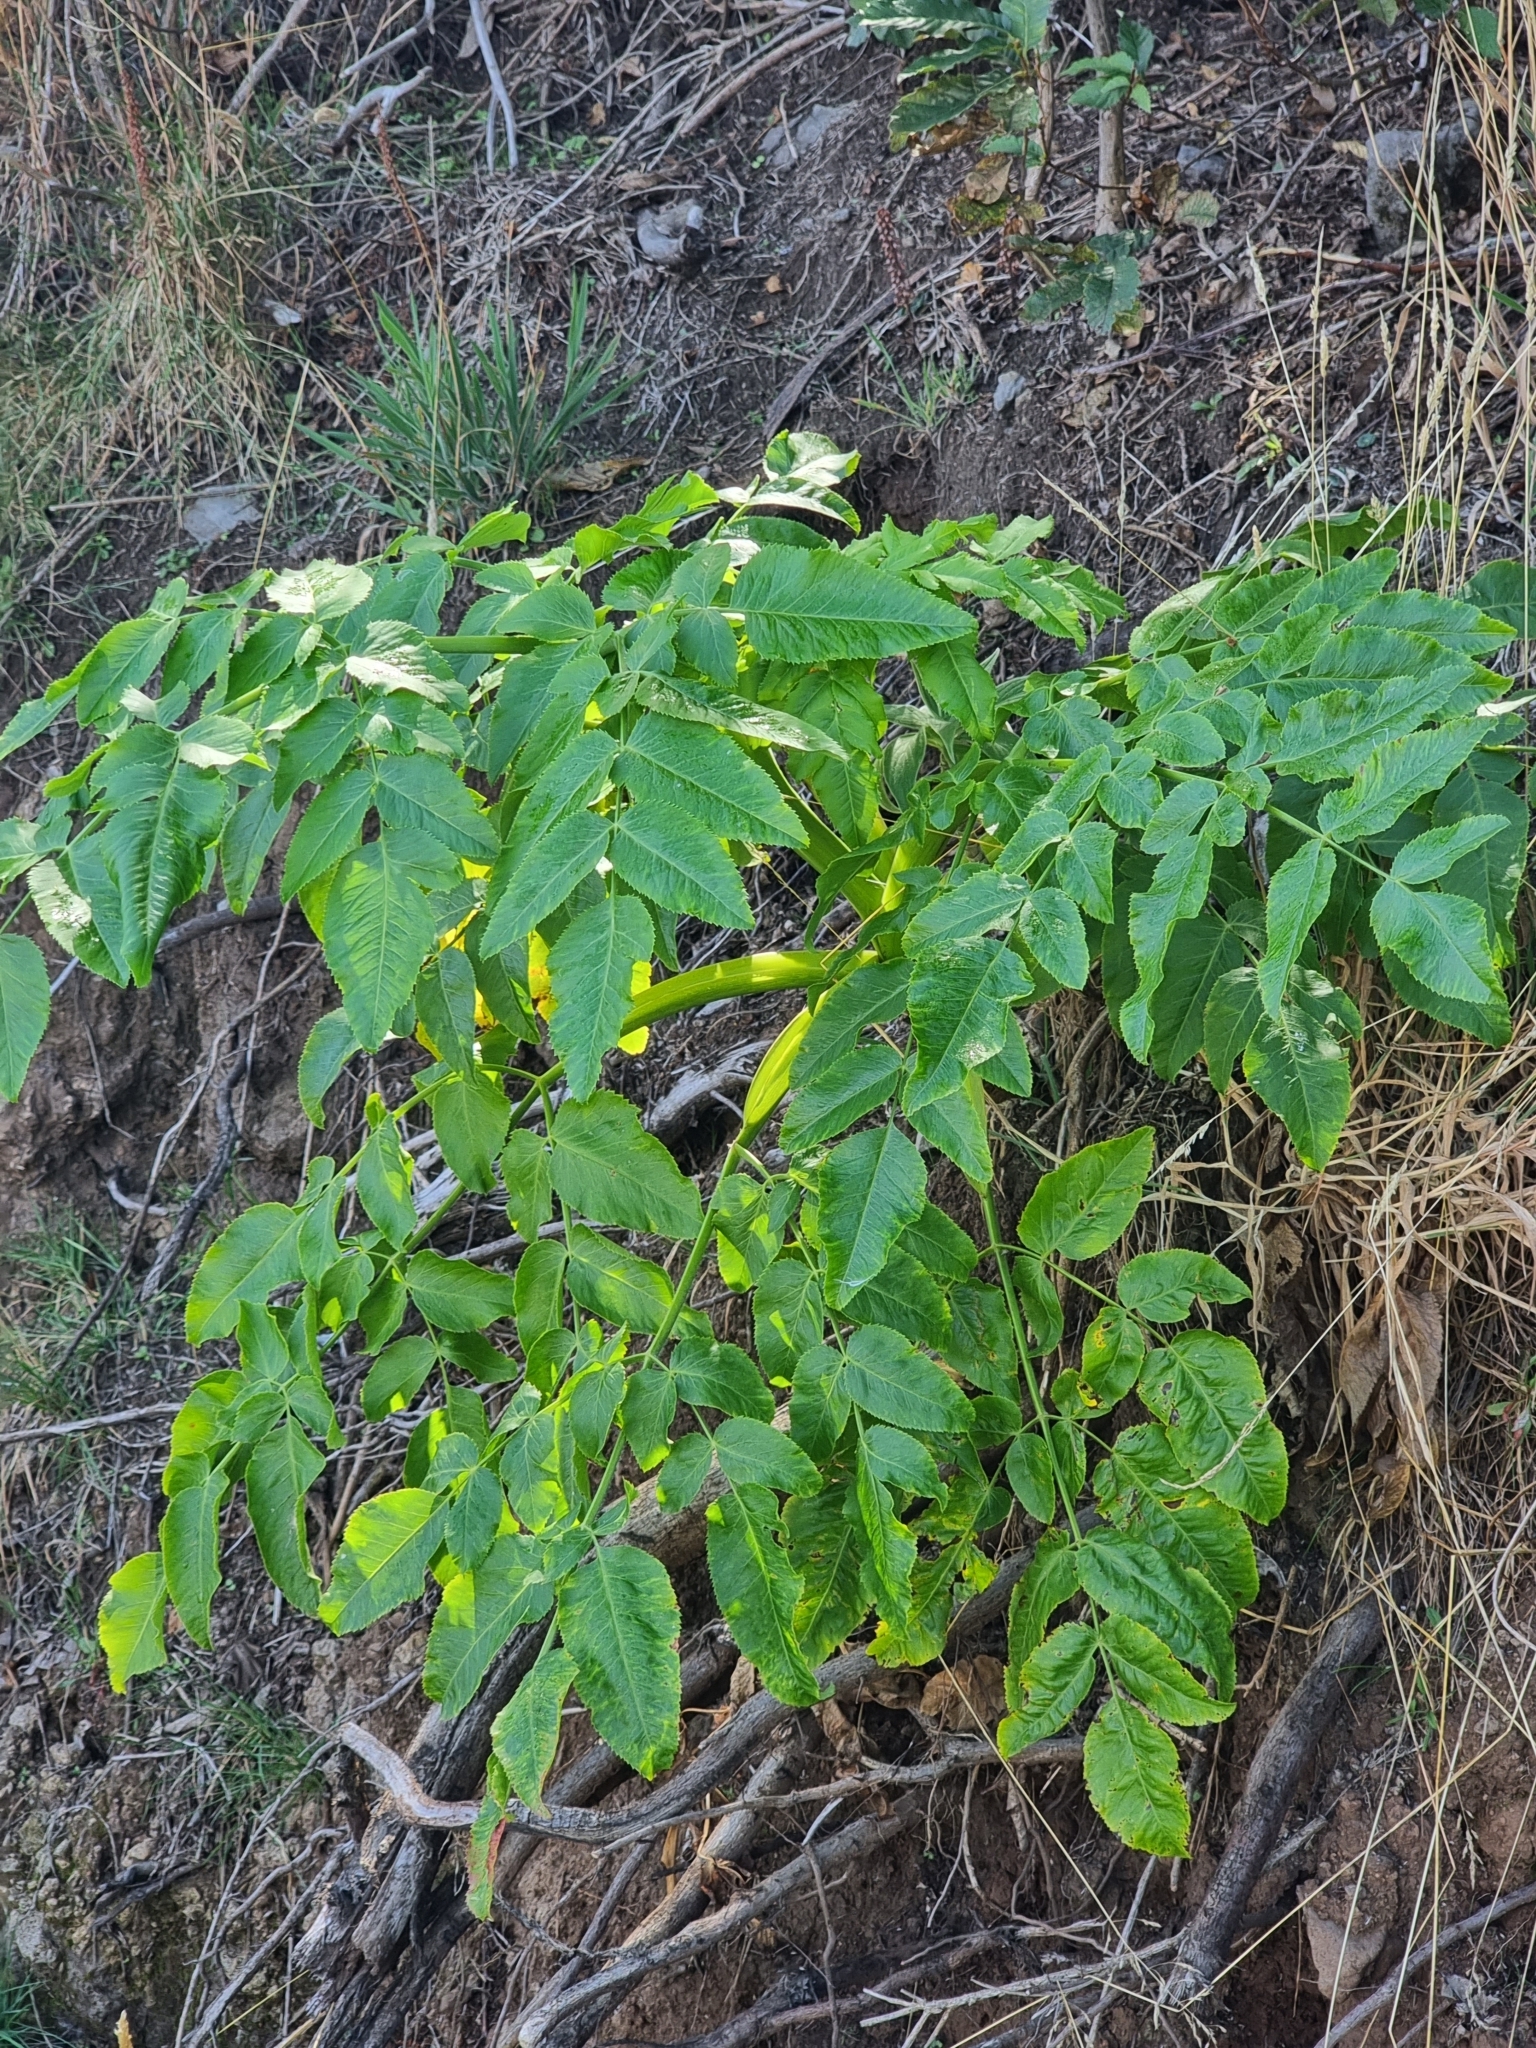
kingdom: Plantae
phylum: Tracheophyta
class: Magnoliopsida
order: Apiales
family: Apiaceae
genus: Daucus
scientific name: Daucus decipiens
